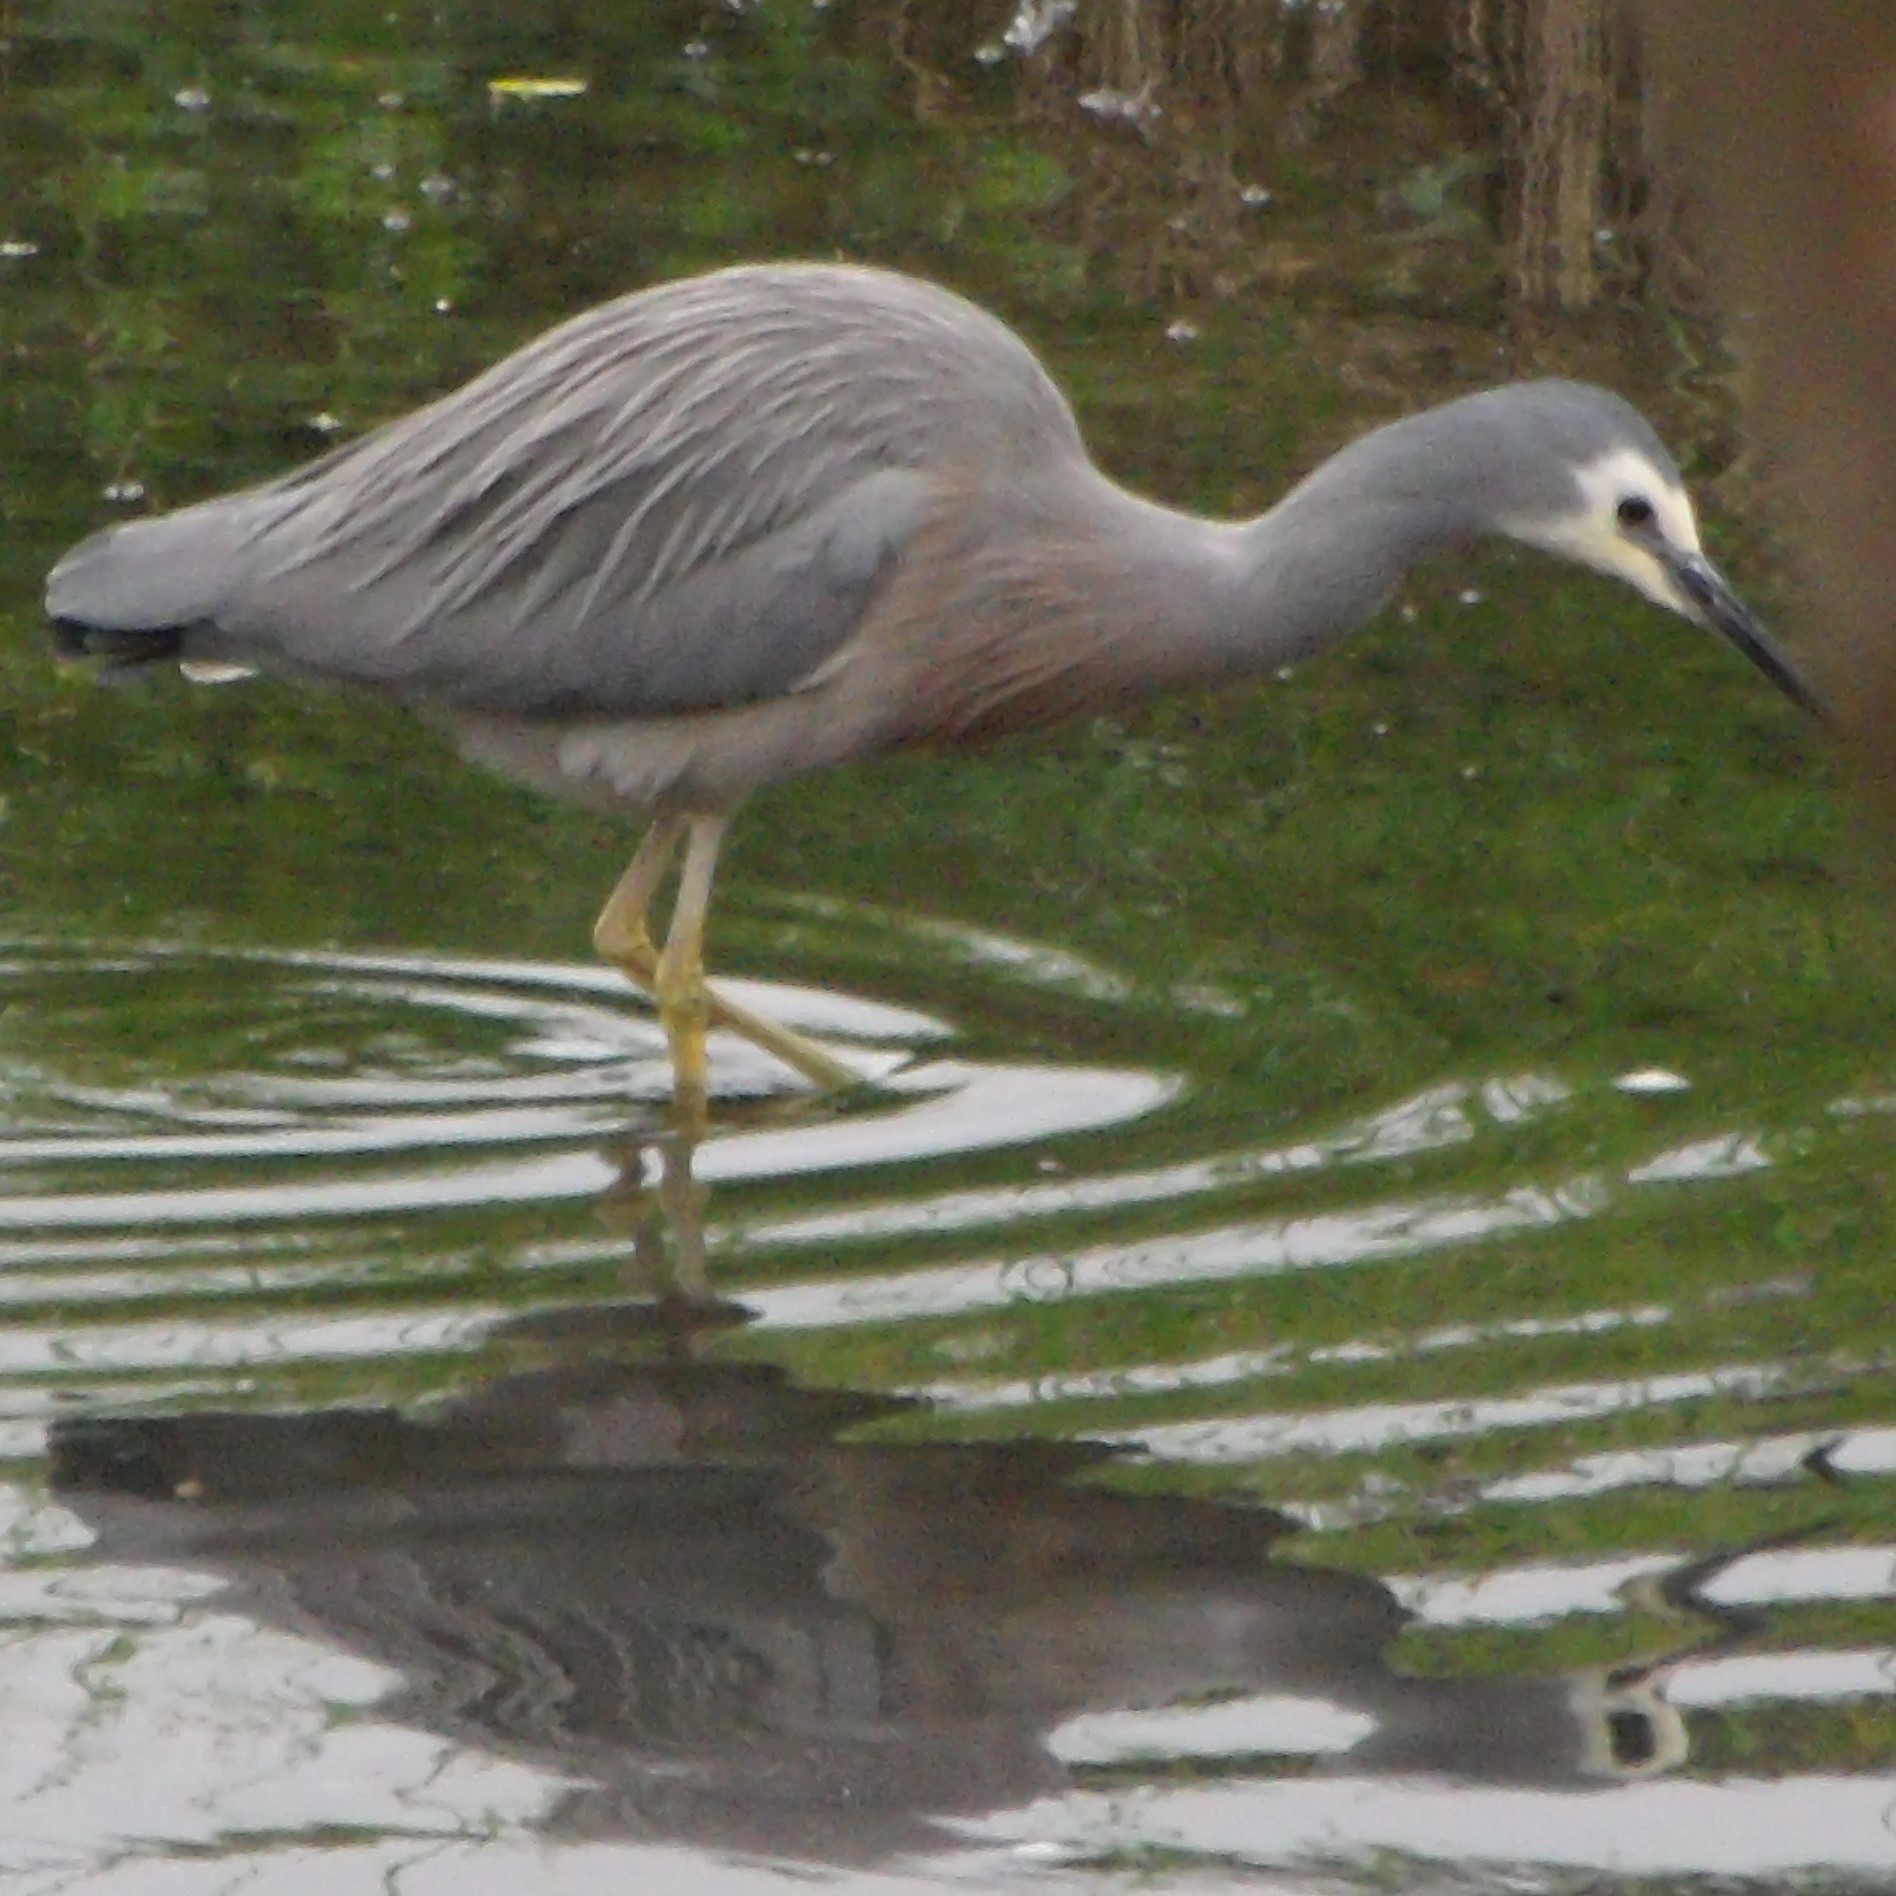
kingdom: Animalia
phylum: Chordata
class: Aves
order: Pelecaniformes
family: Ardeidae
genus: Egretta
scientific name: Egretta novaehollandiae
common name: White-faced heron
